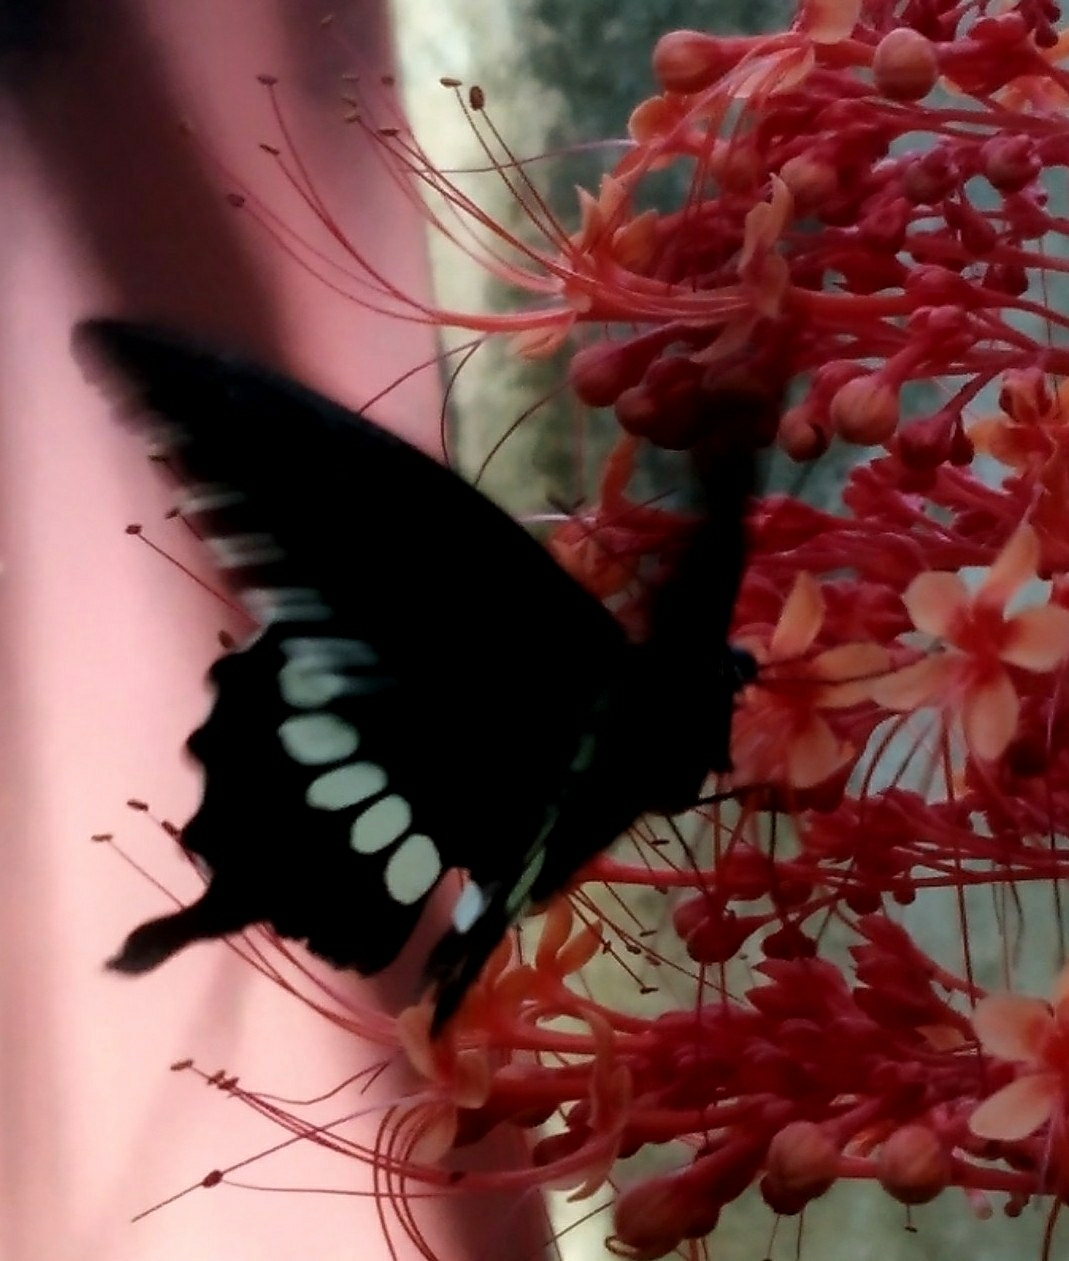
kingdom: Animalia
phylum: Arthropoda
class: Insecta
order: Lepidoptera
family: Papilionidae
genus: Papilio
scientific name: Papilio polytes
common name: Common mormon
